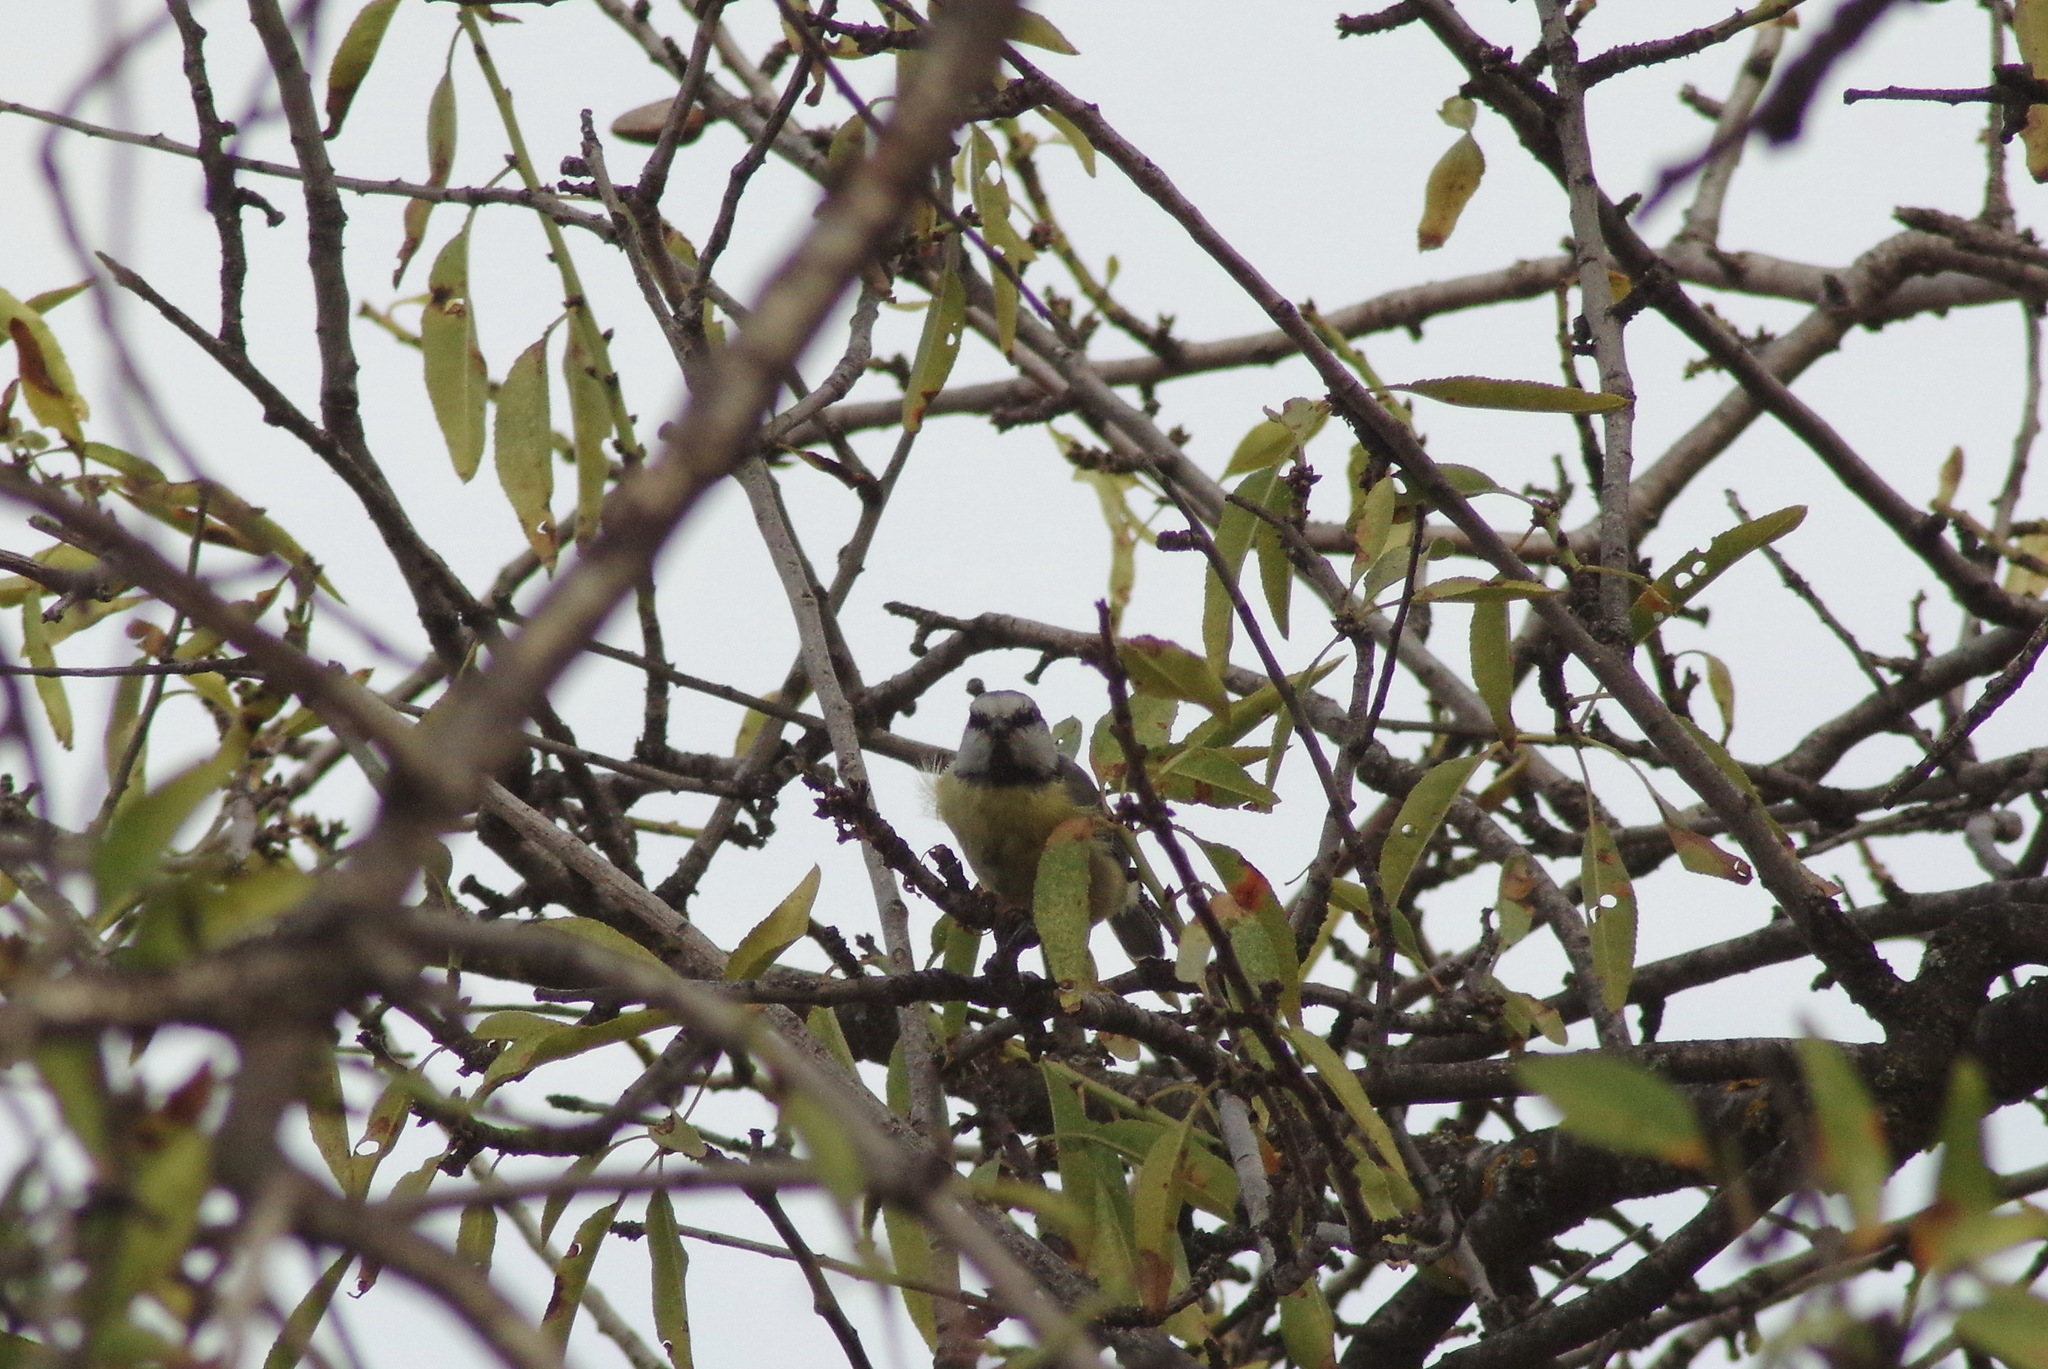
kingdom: Animalia
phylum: Chordata
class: Aves
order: Passeriformes
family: Paridae
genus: Cyanistes
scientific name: Cyanistes caeruleus
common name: Eurasian blue tit
